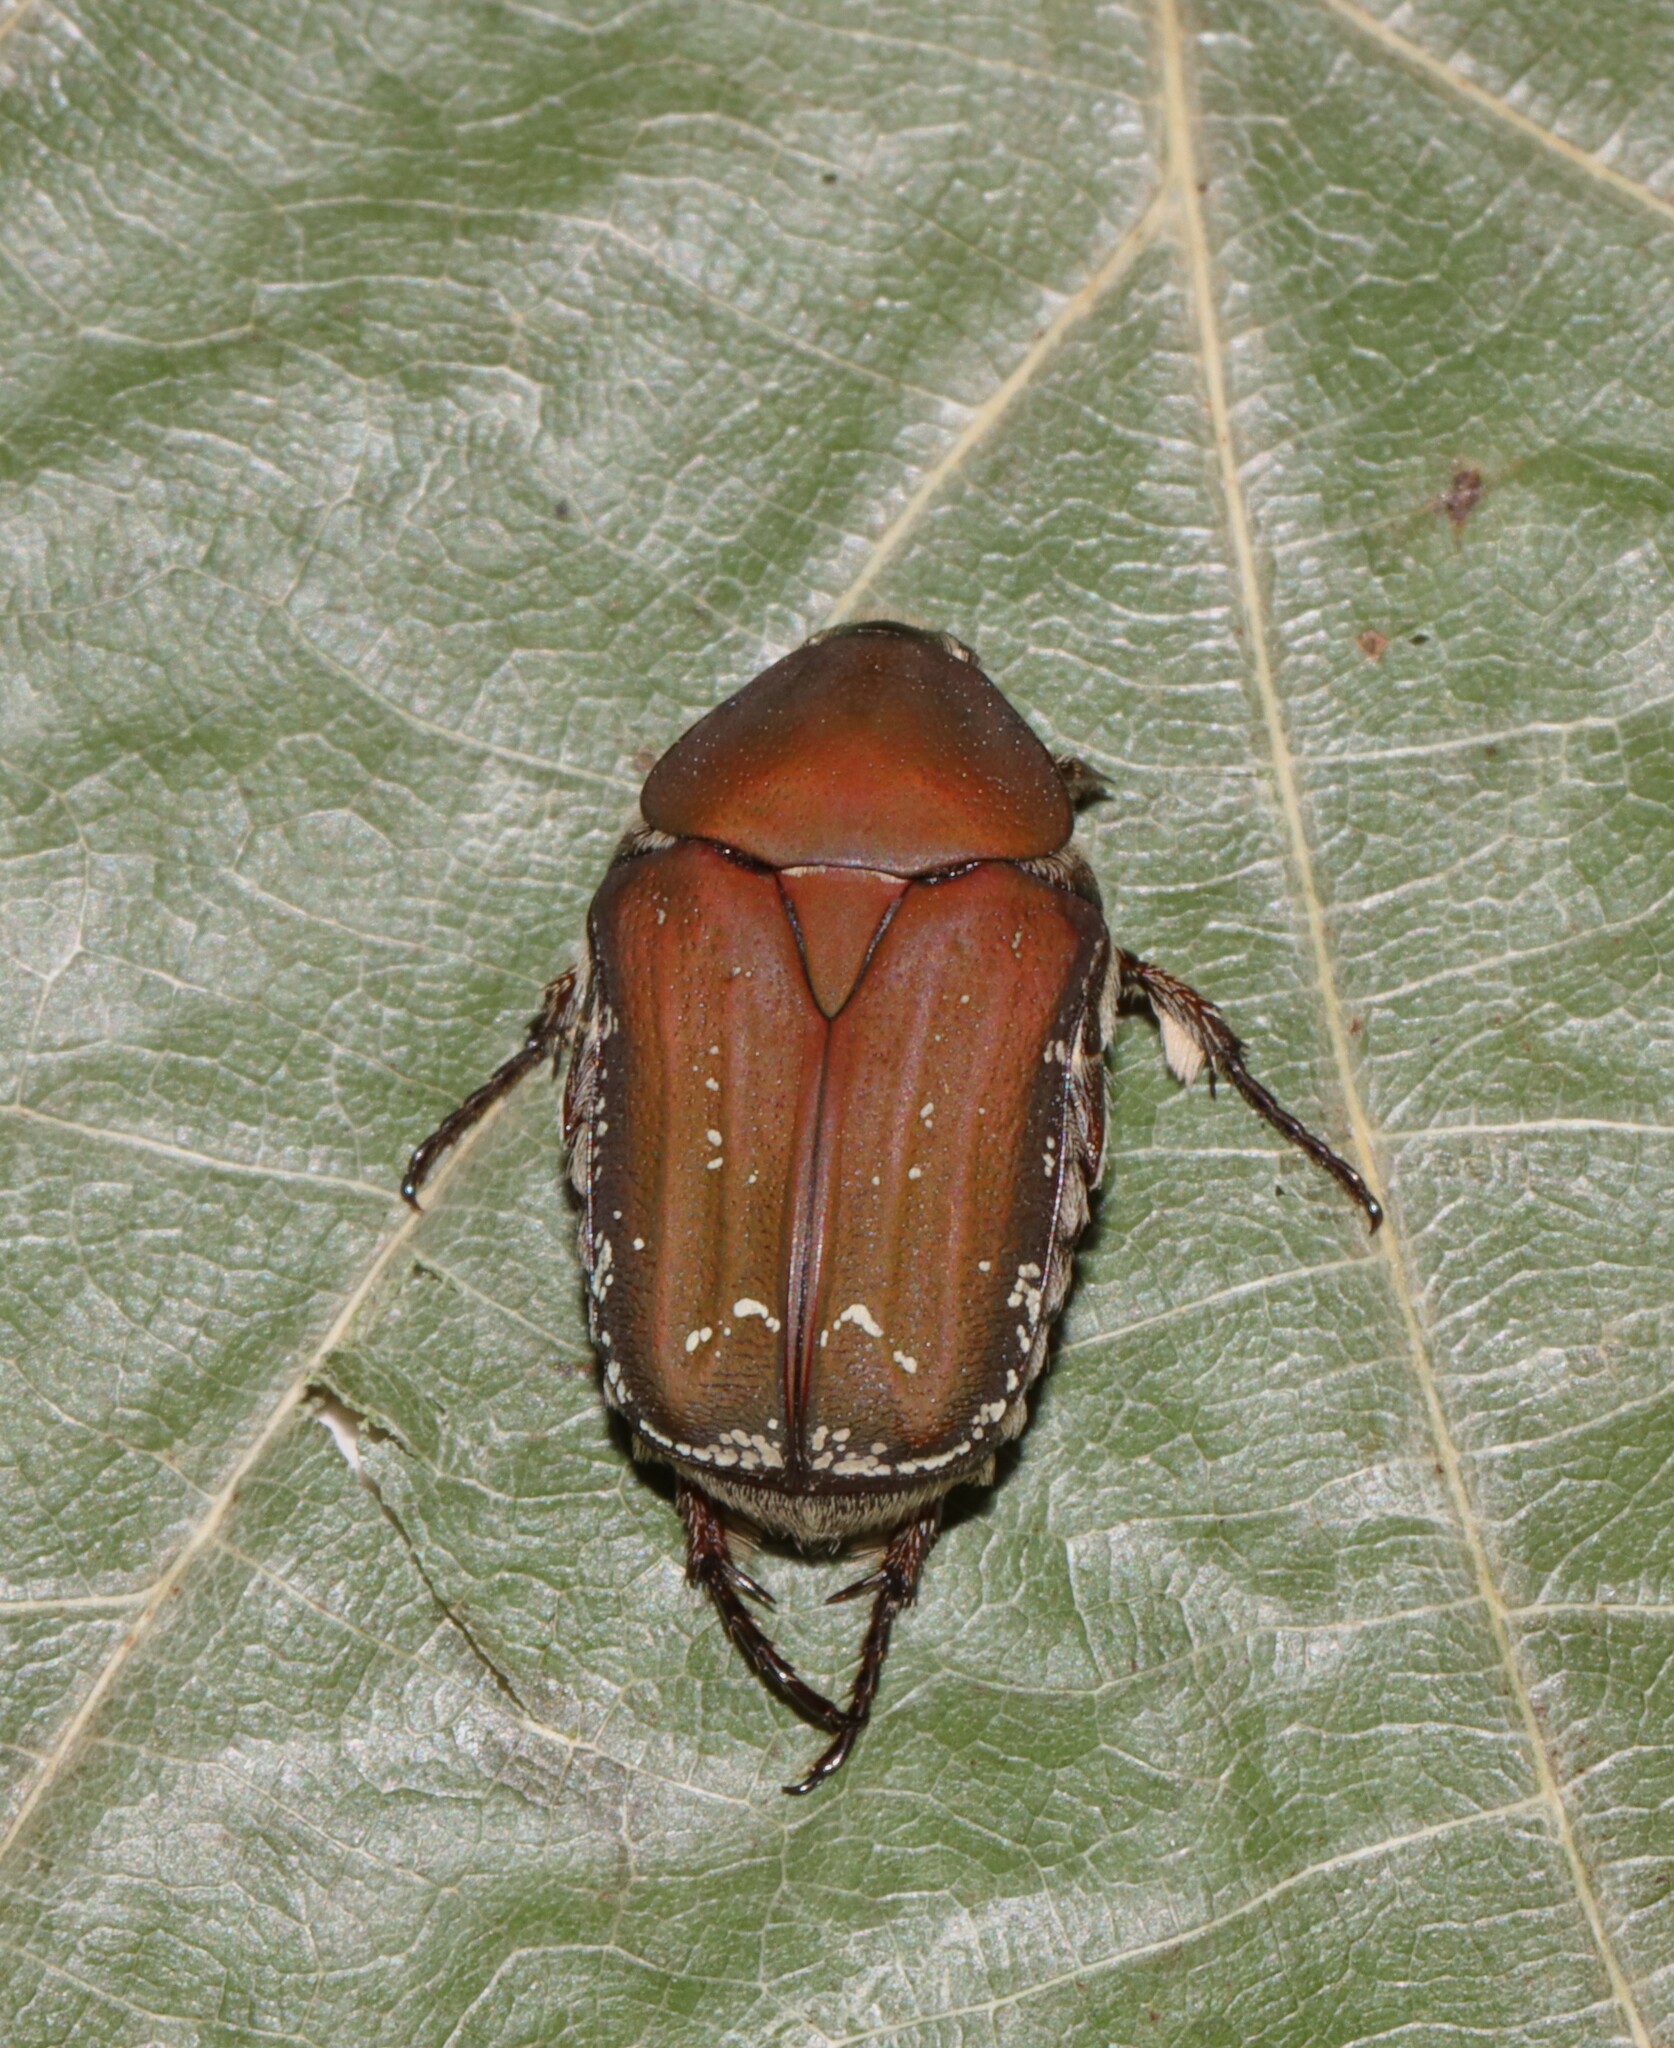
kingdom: Animalia
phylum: Arthropoda
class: Insecta
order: Coleoptera
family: Scarabaeidae
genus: Euphoria
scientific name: Euphoria herbacea
